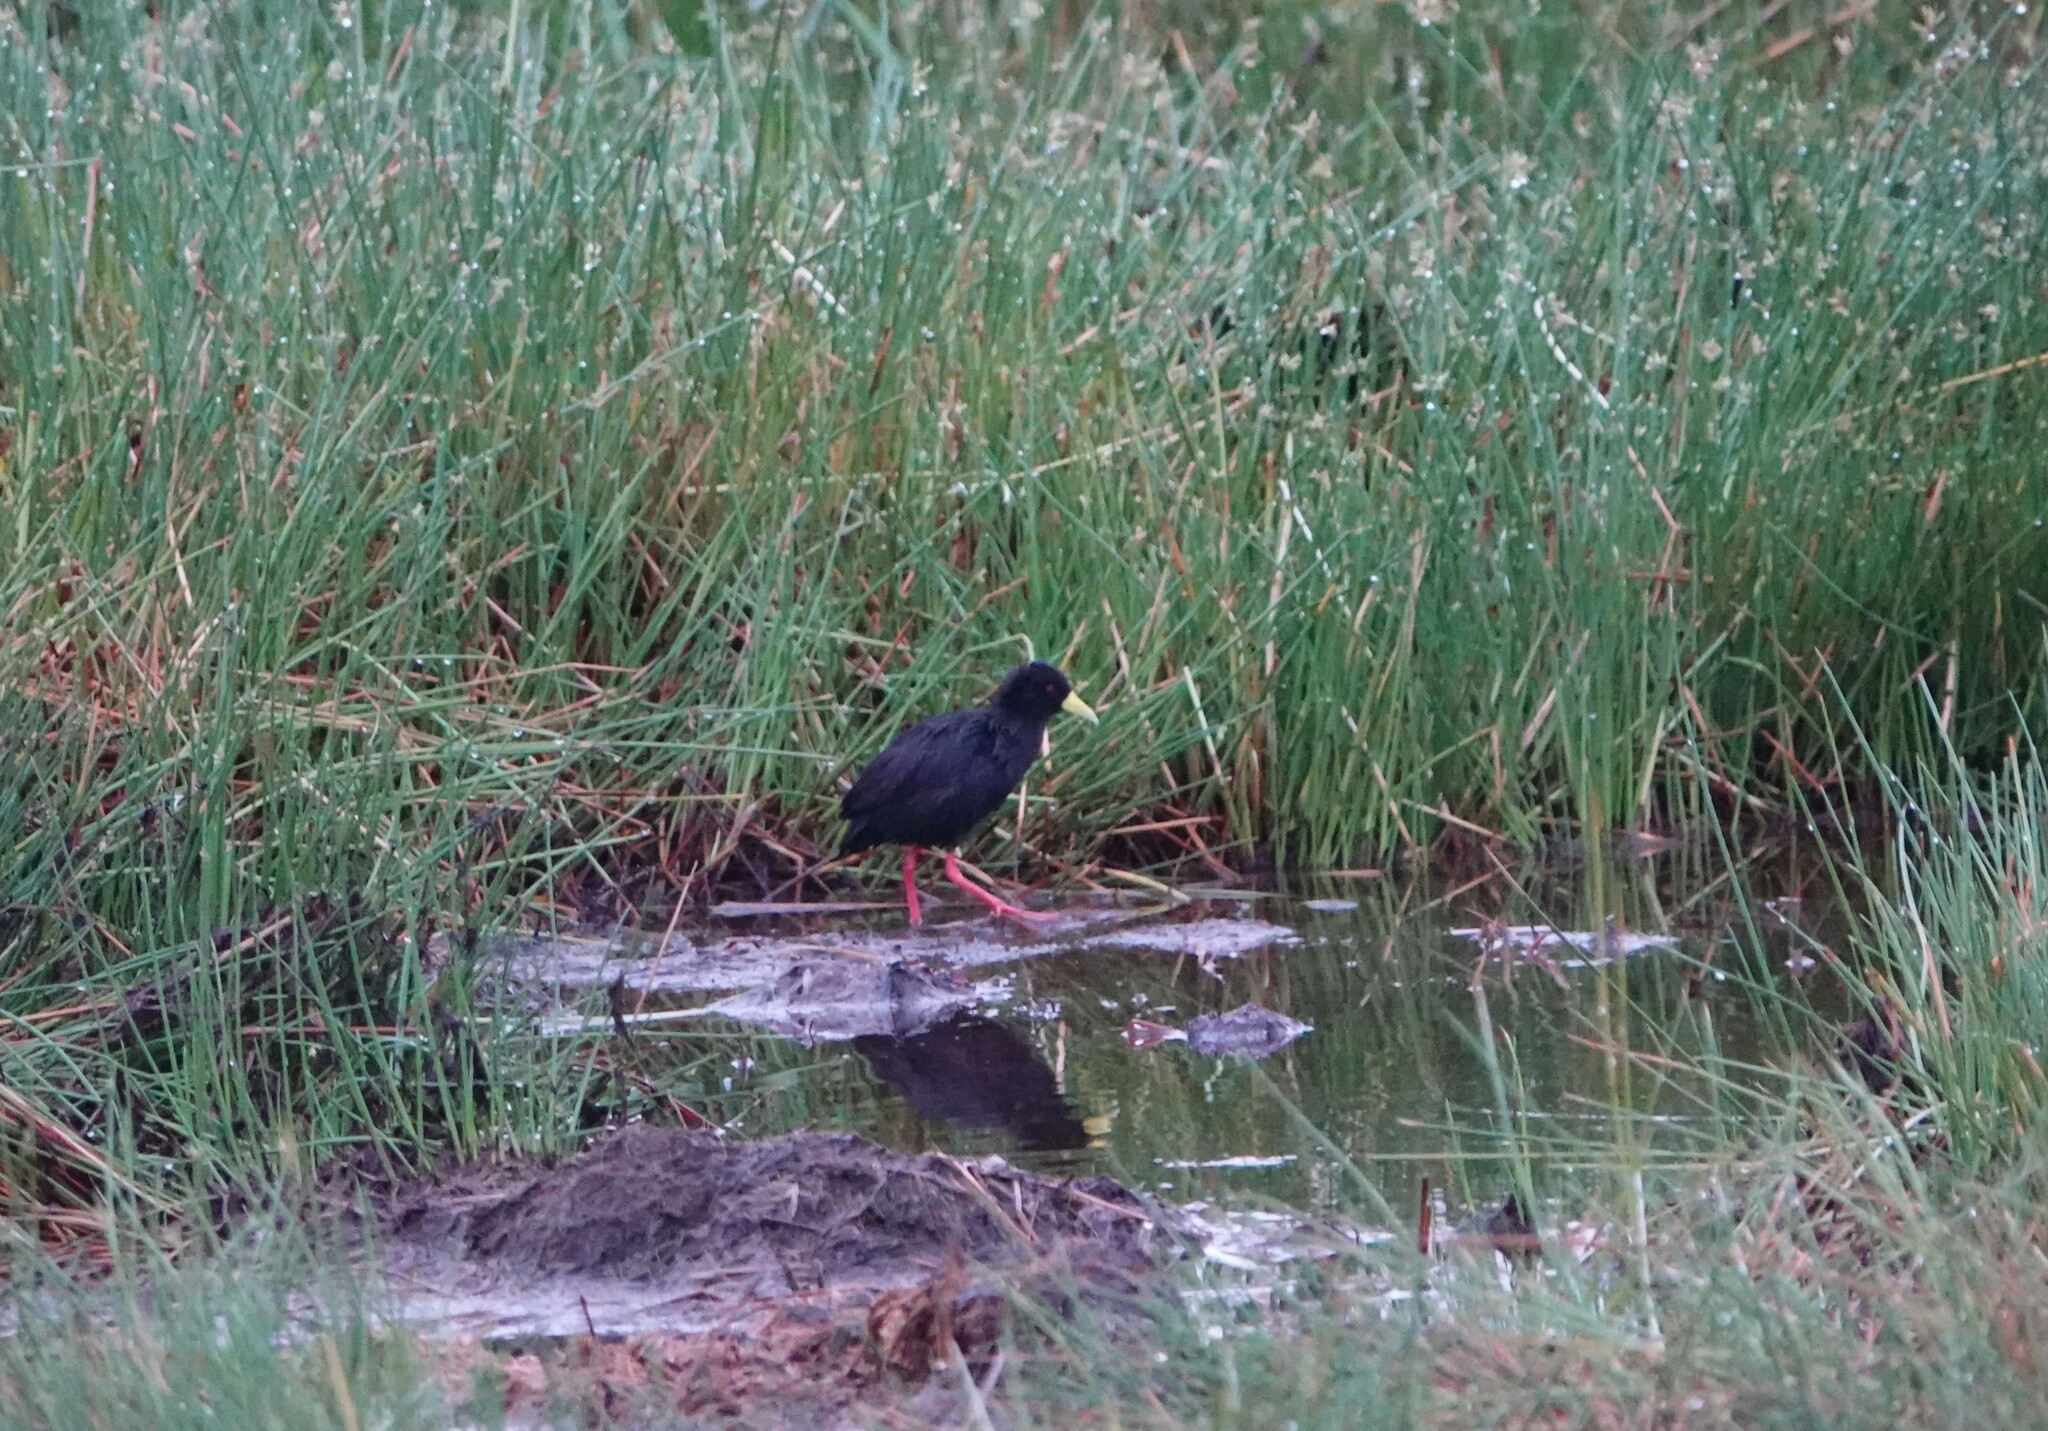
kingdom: Animalia
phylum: Chordata
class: Aves
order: Gruiformes
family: Rallidae
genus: Amaurornis
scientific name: Amaurornis flavirostra
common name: Black crake
